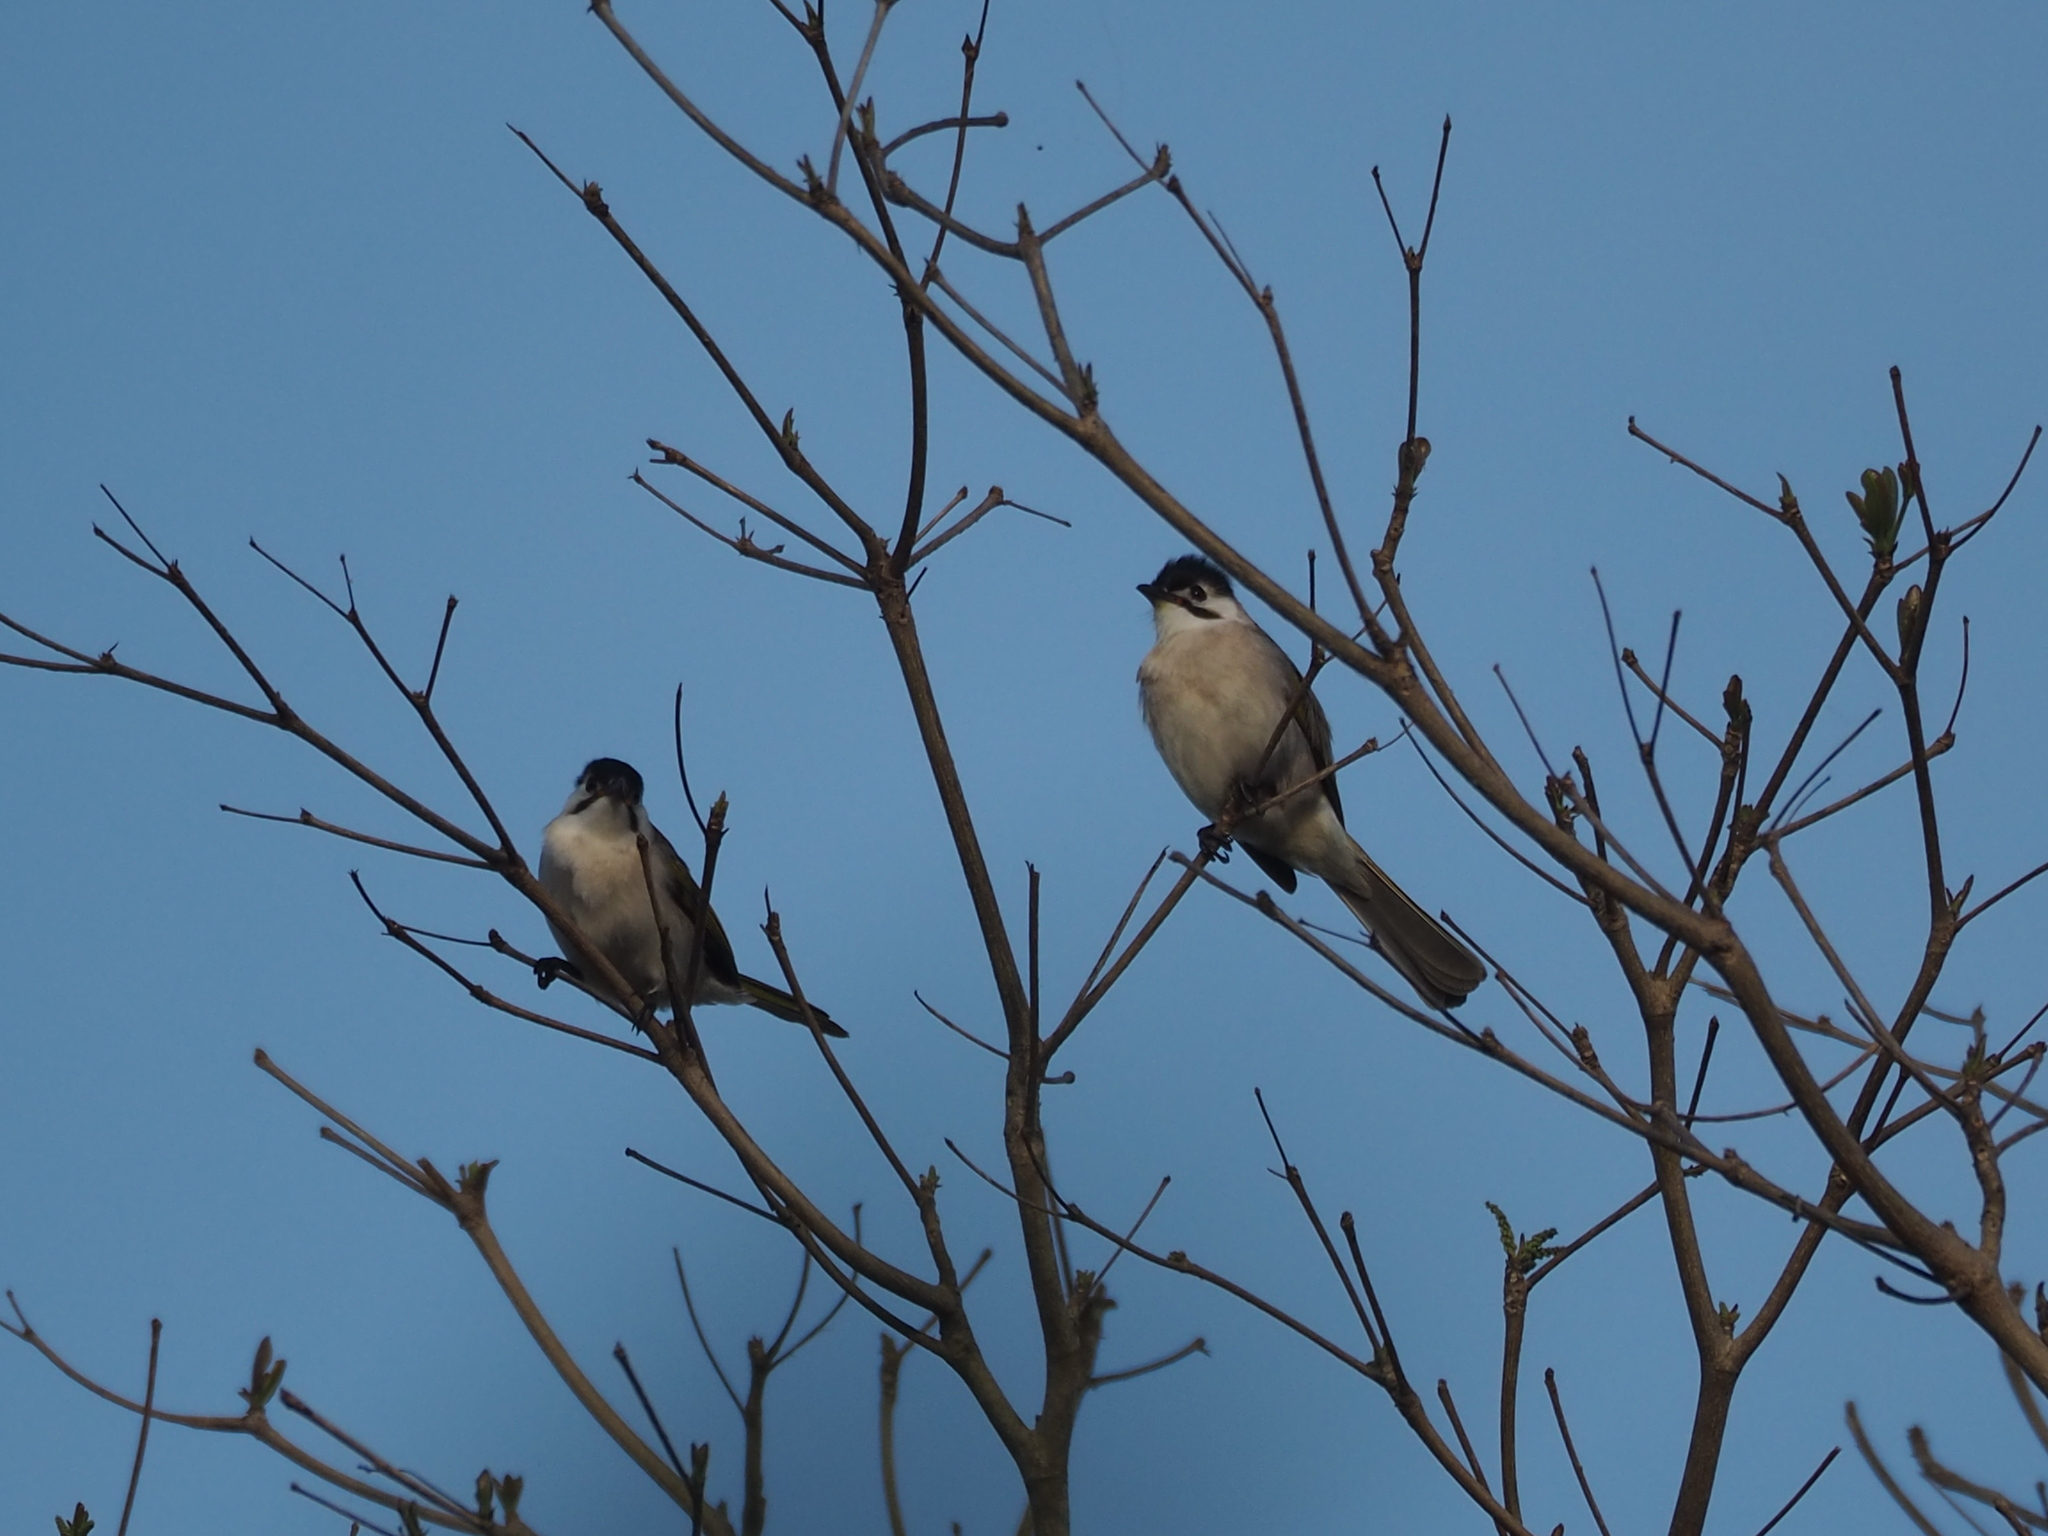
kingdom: Animalia
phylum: Chordata
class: Aves
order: Passeriformes
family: Pycnonotidae
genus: Pycnonotus
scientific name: Pycnonotus taivanus
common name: Styan's bulbul
